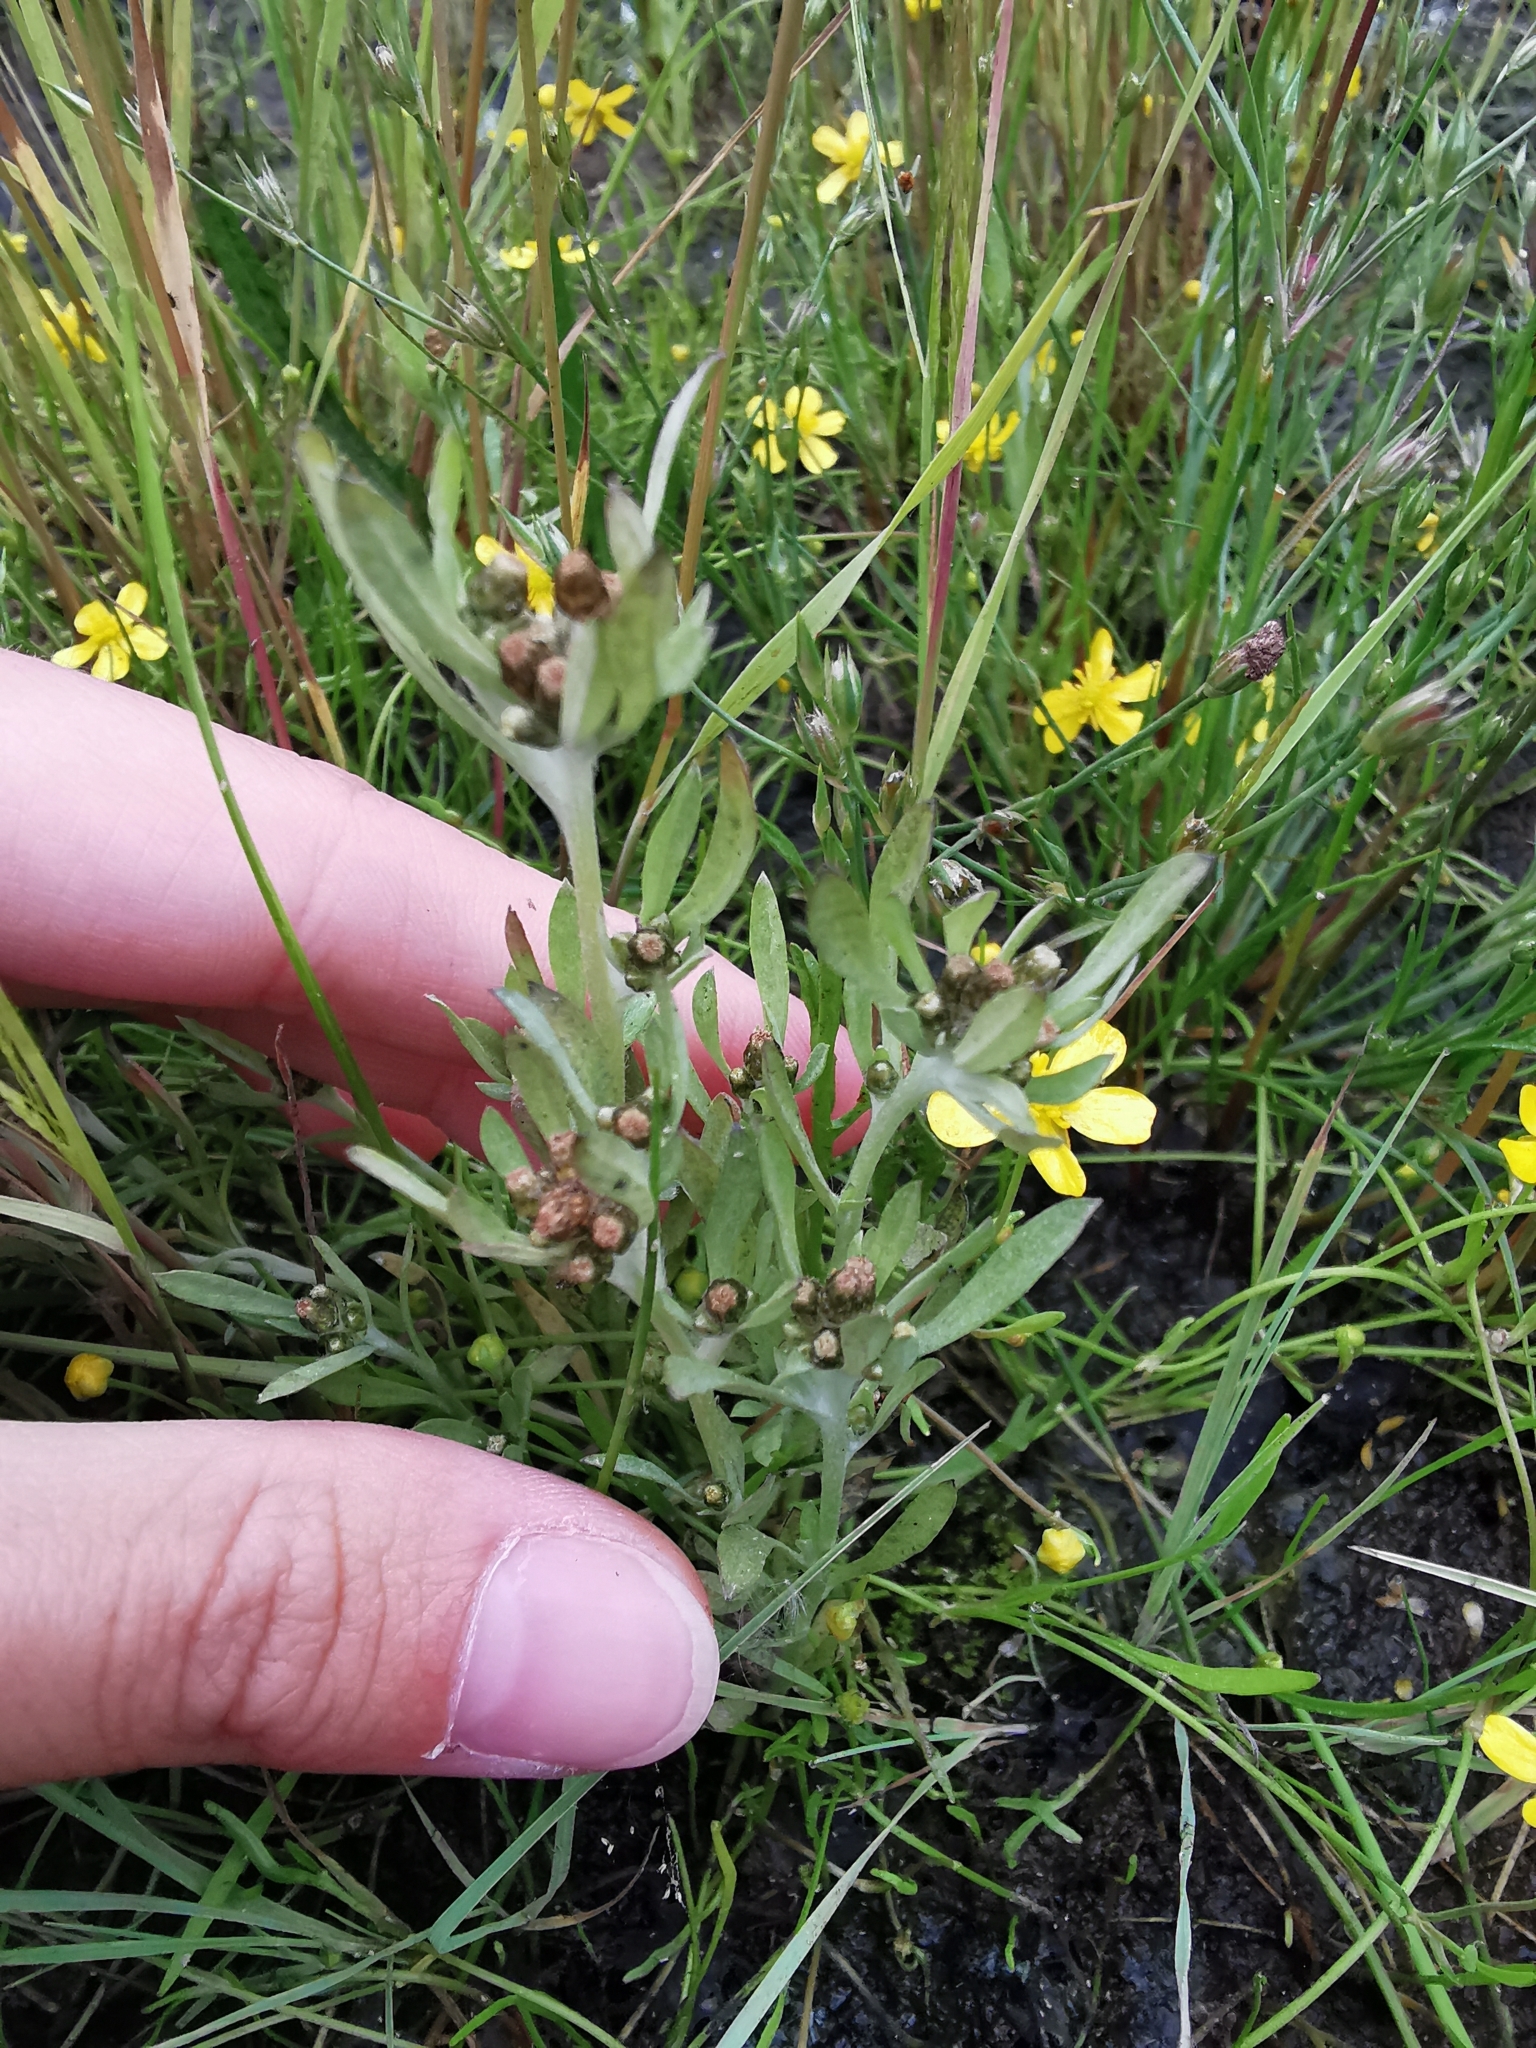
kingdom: Plantae
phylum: Tracheophyta
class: Magnoliopsida
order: Asterales
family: Asteraceae
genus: Gnaphalium
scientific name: Gnaphalium uliginosum
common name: Marsh cudweed
